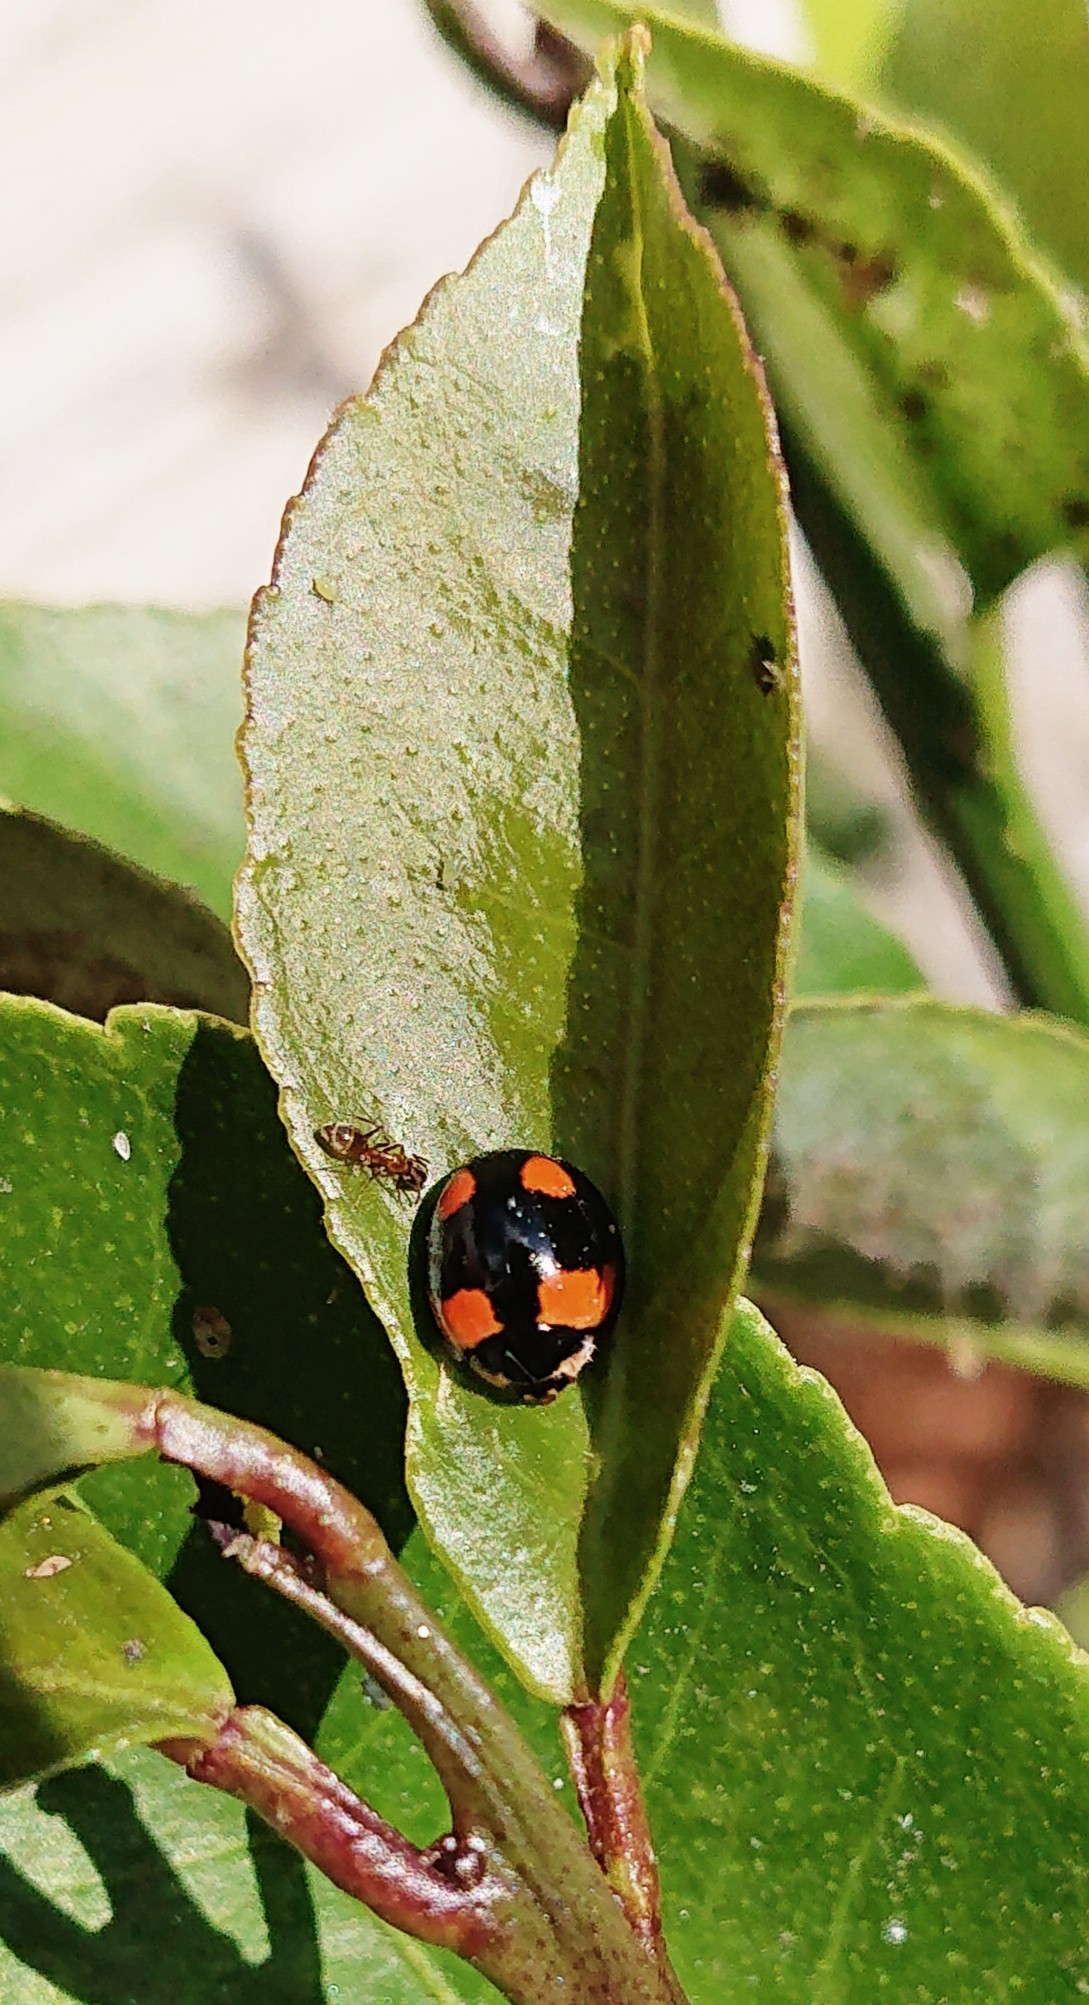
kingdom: Animalia
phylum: Arthropoda
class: Insecta
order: Coleoptera
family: Coccinellidae
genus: Cheilomenes
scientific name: Cheilomenes sexmaculata
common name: Ladybird beetle
